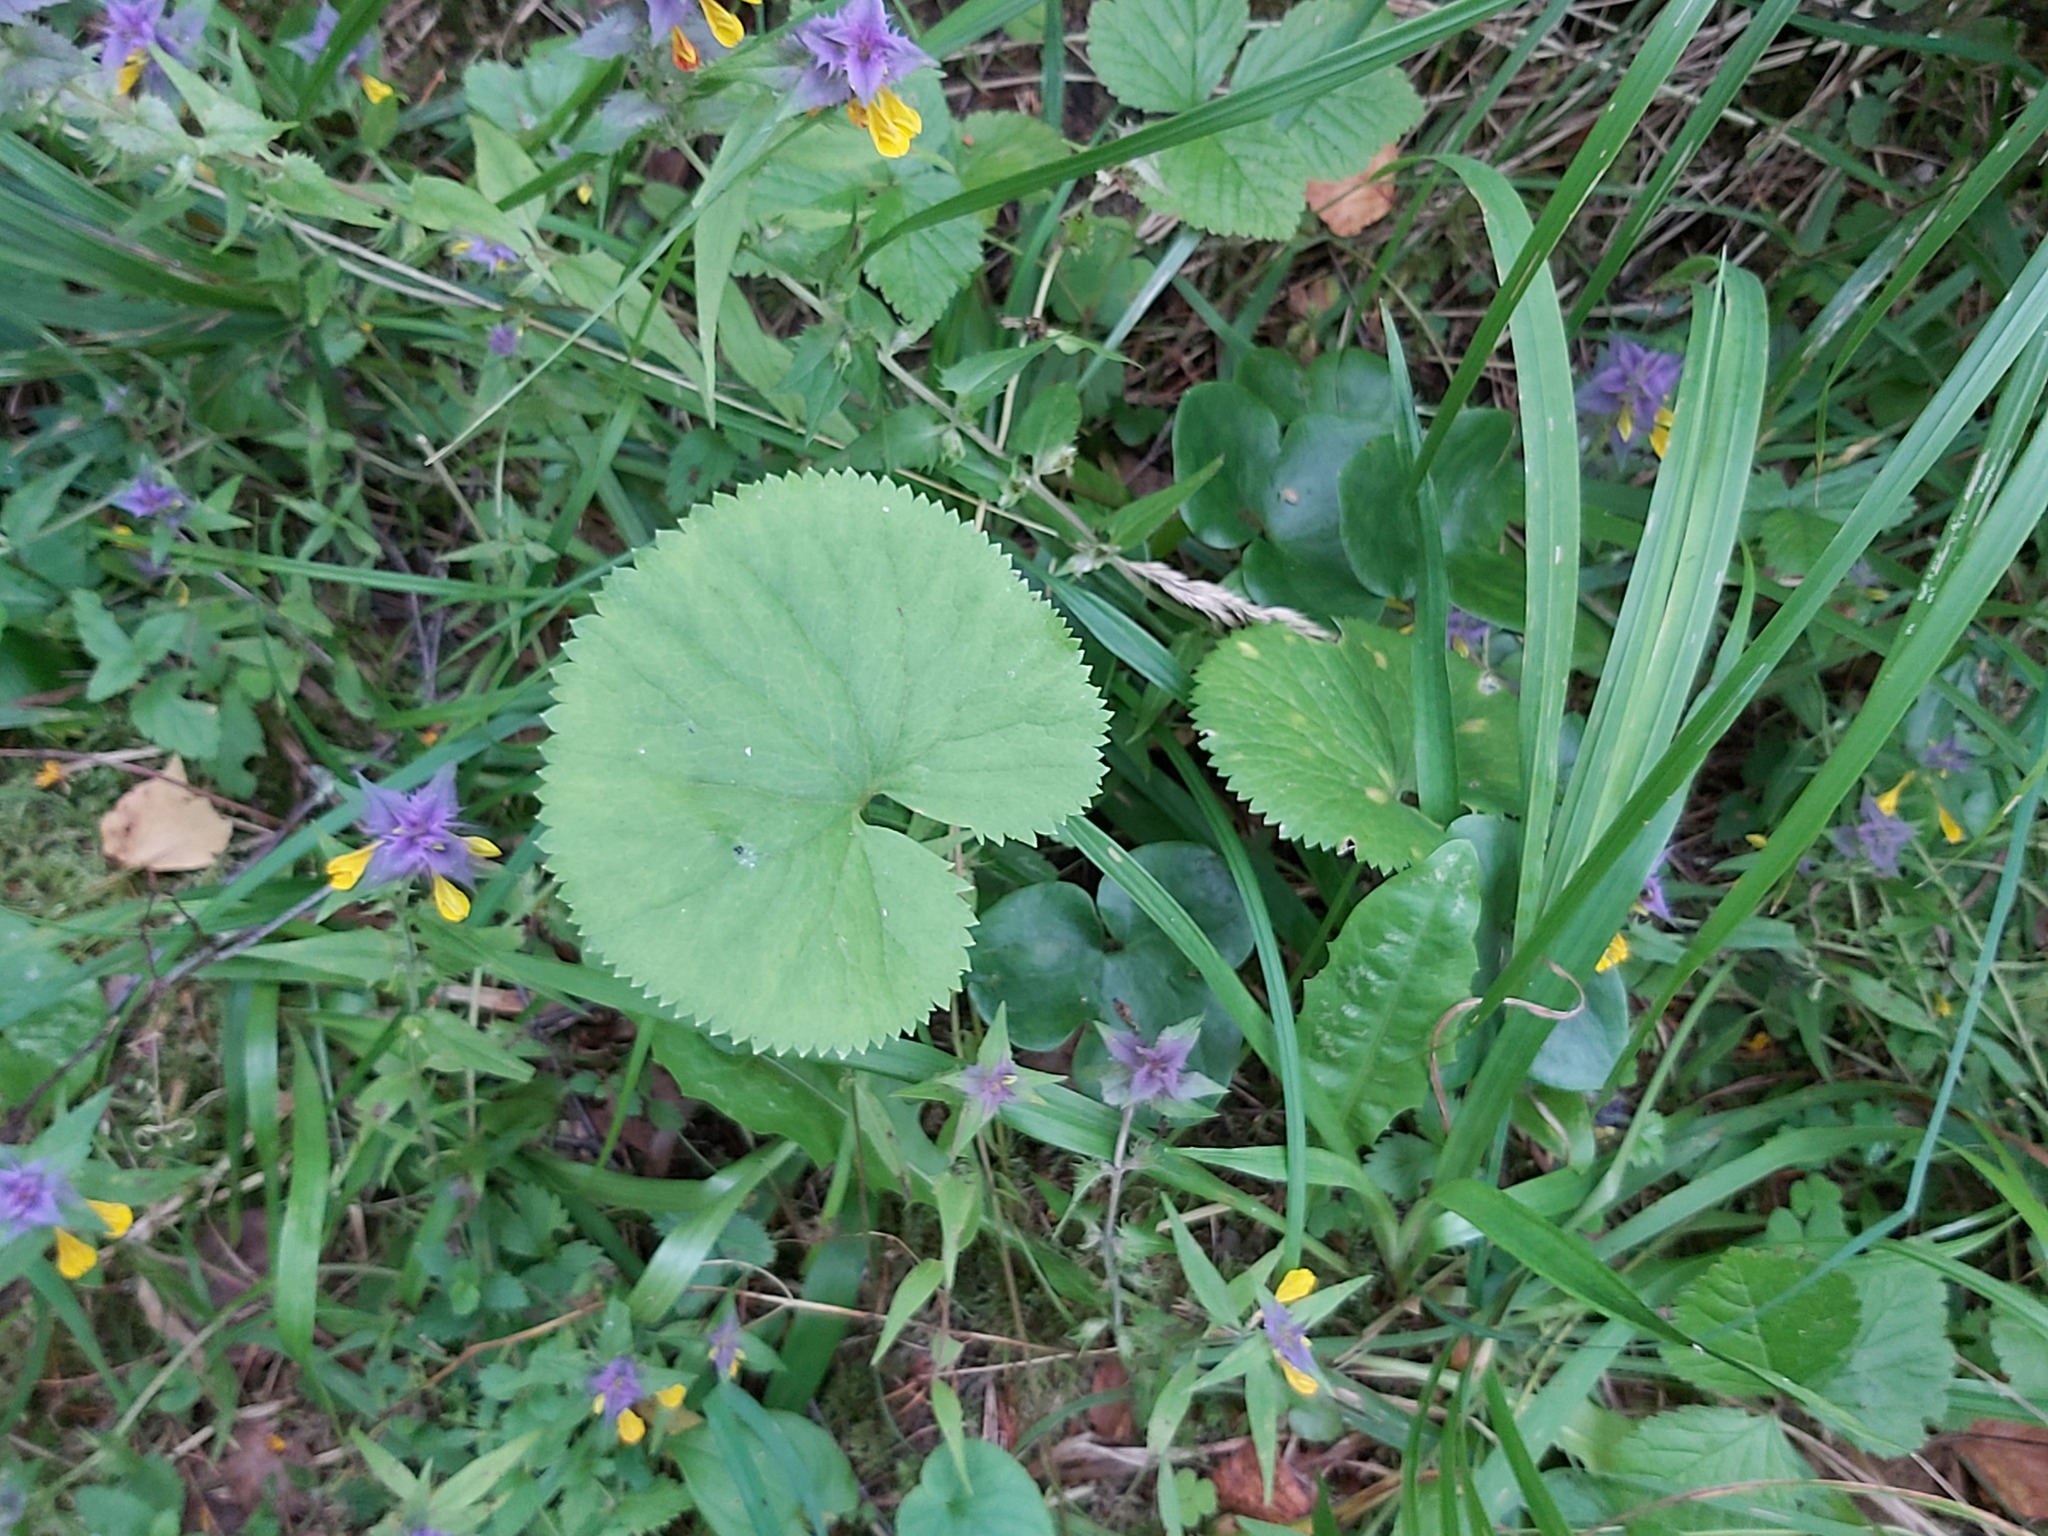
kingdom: Plantae
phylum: Tracheophyta
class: Magnoliopsida
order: Lamiales
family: Orobanchaceae
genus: Melampyrum
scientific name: Melampyrum nemorosum
